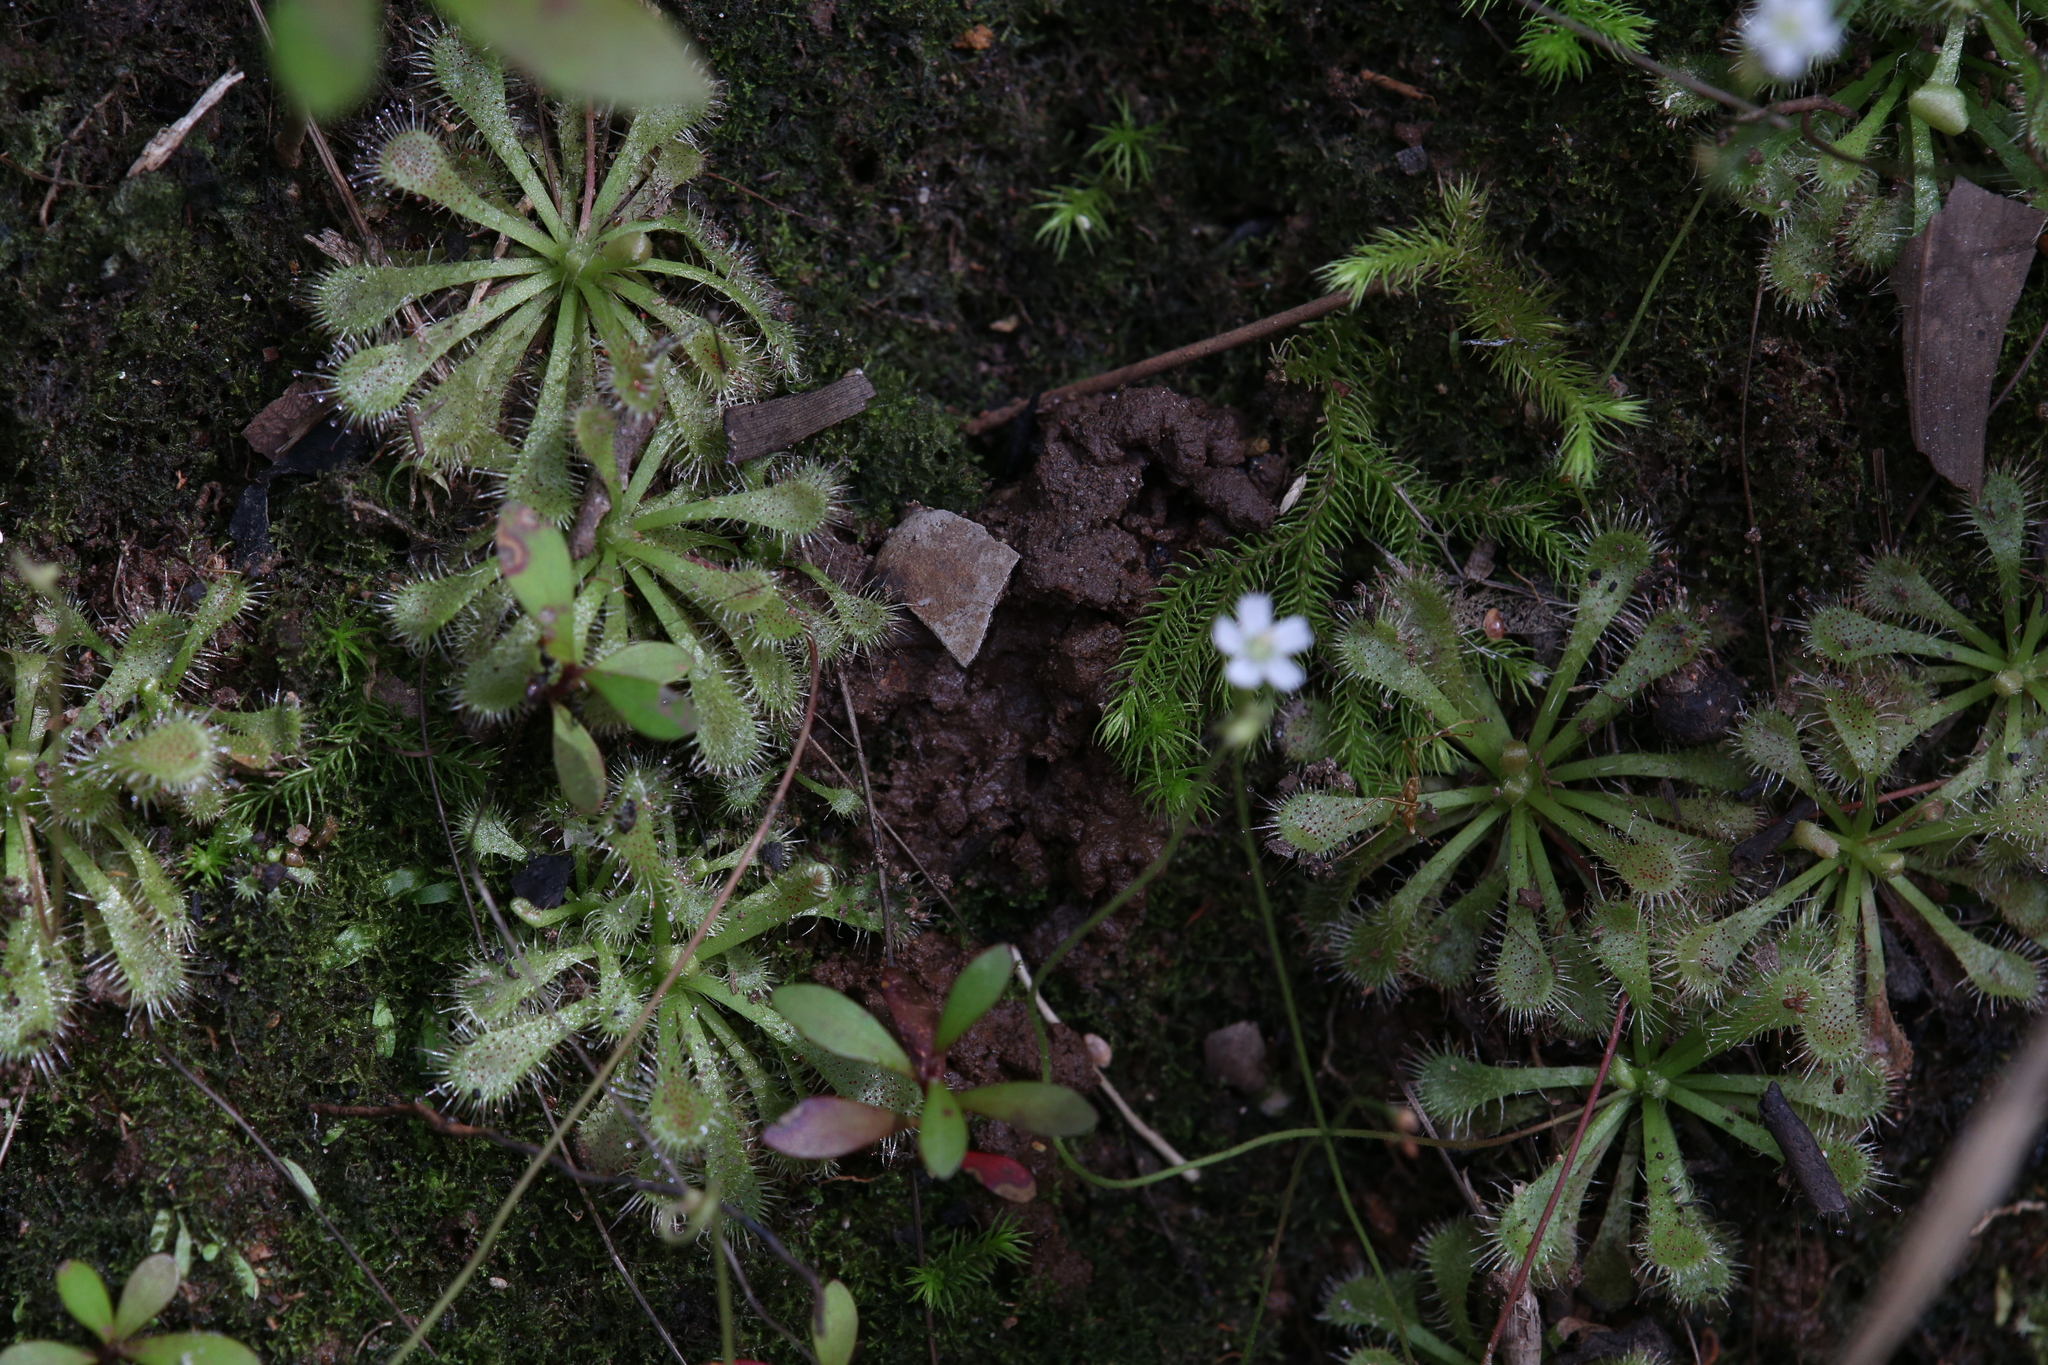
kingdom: Plantae
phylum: Tracheophyta
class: Magnoliopsida
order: Caryophyllales
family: Droseraceae
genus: Drosera
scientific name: Drosera spatulata
